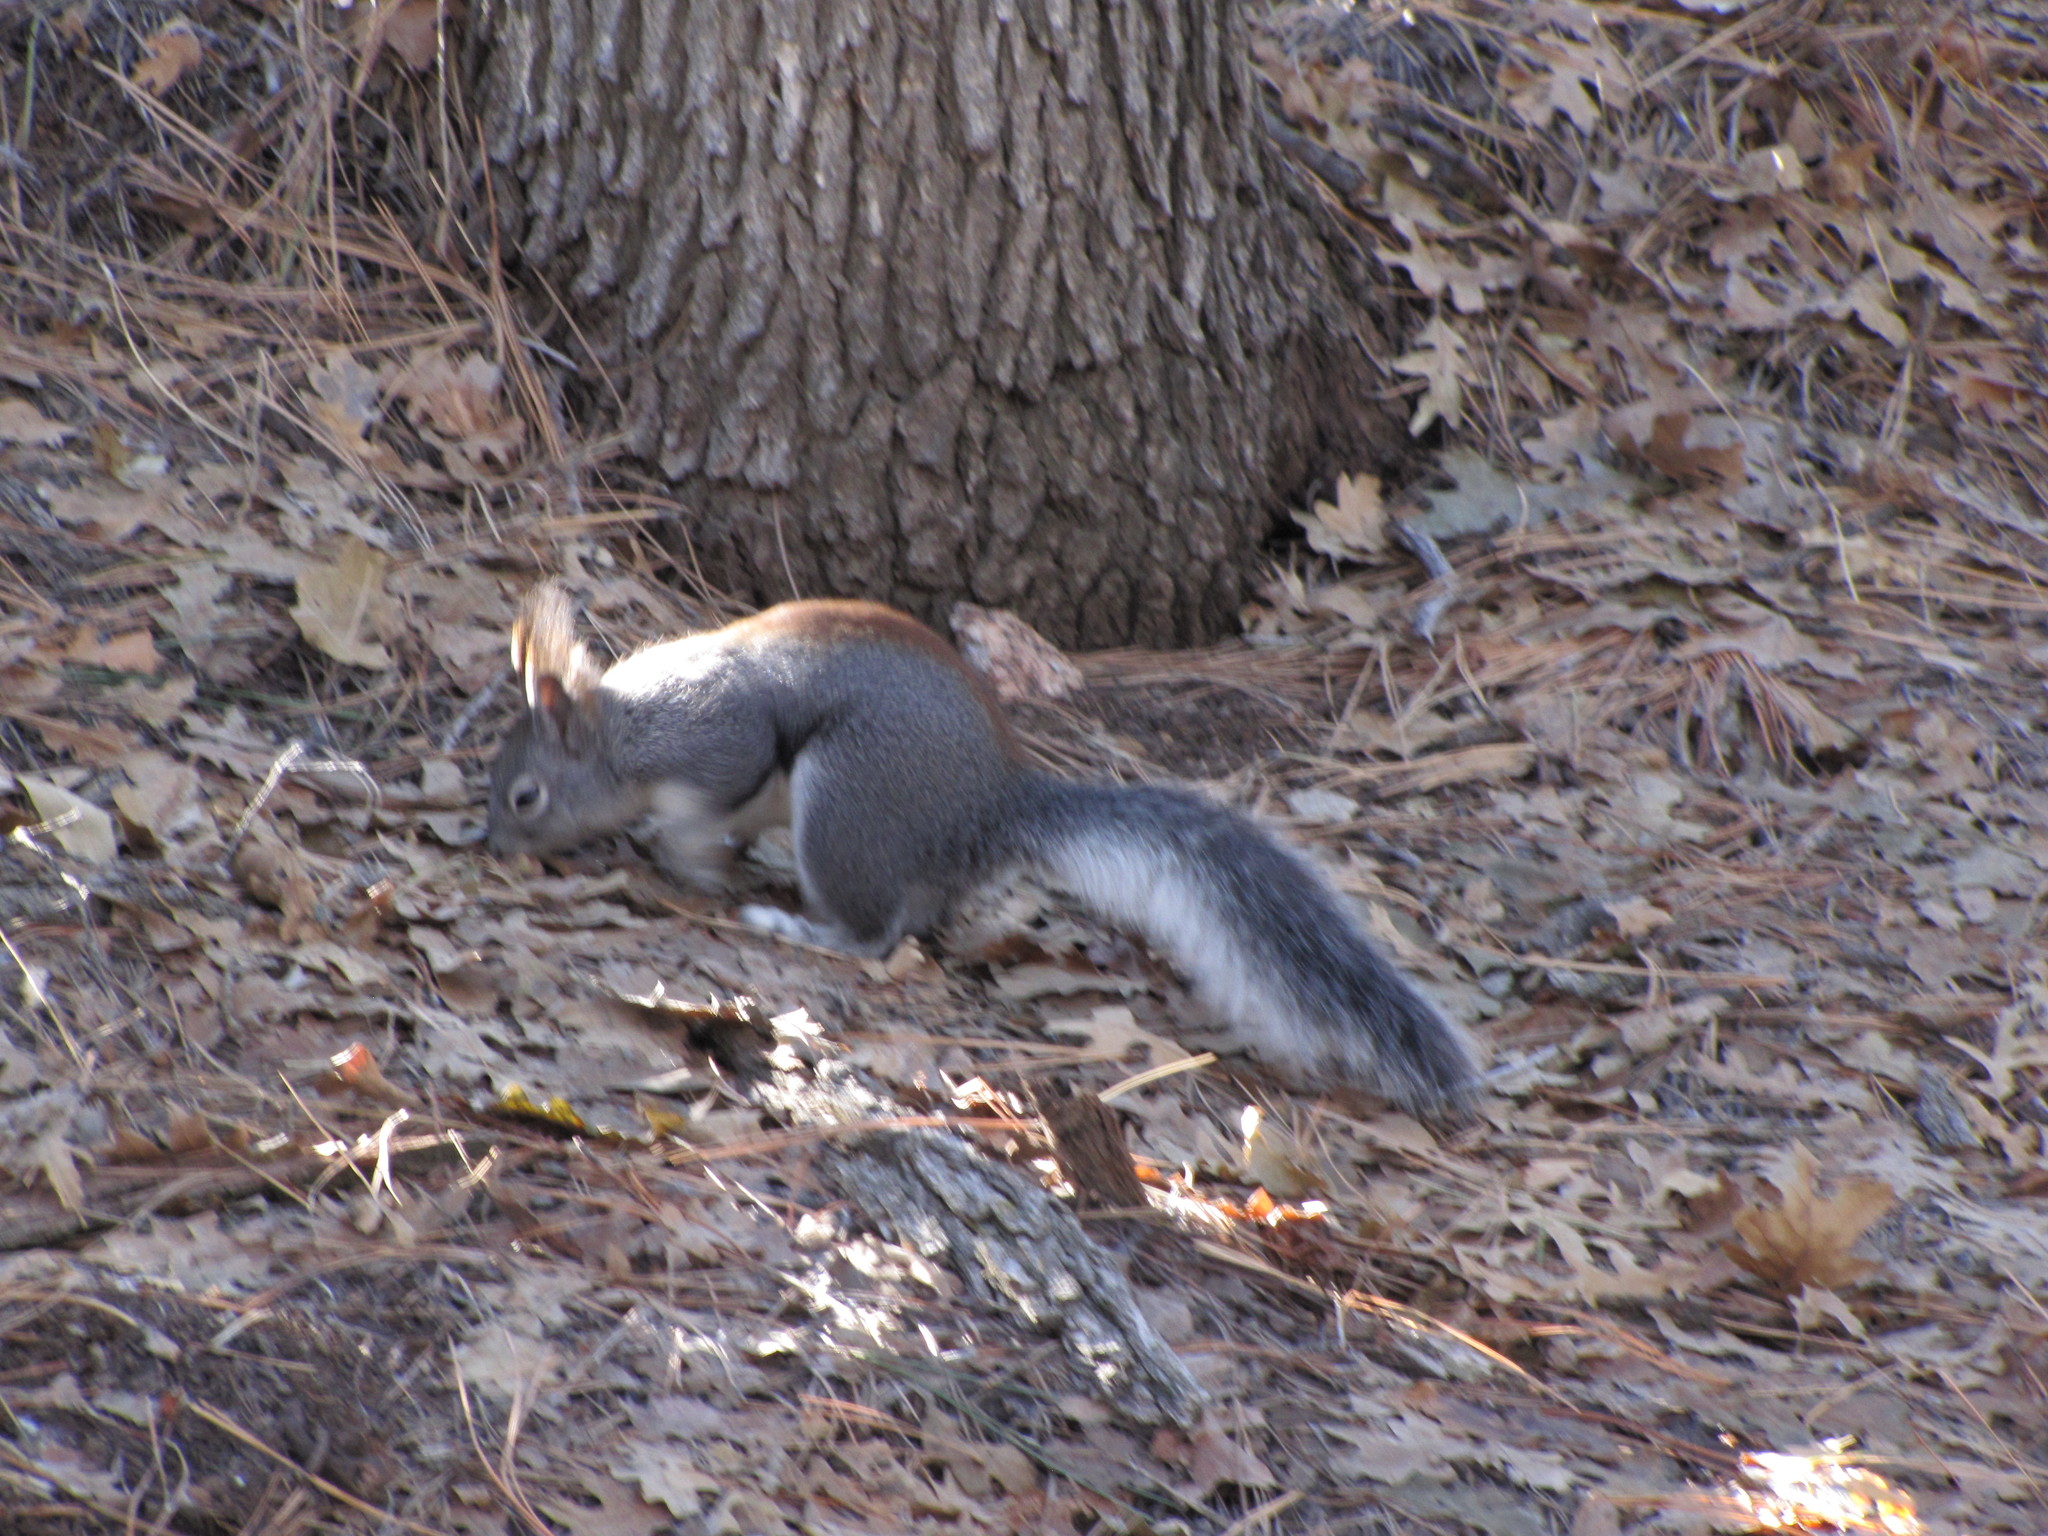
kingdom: Animalia
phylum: Chordata
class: Mammalia
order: Rodentia
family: Sciuridae
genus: Sciurus
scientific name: Sciurus aberti
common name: Abert's squirrel
